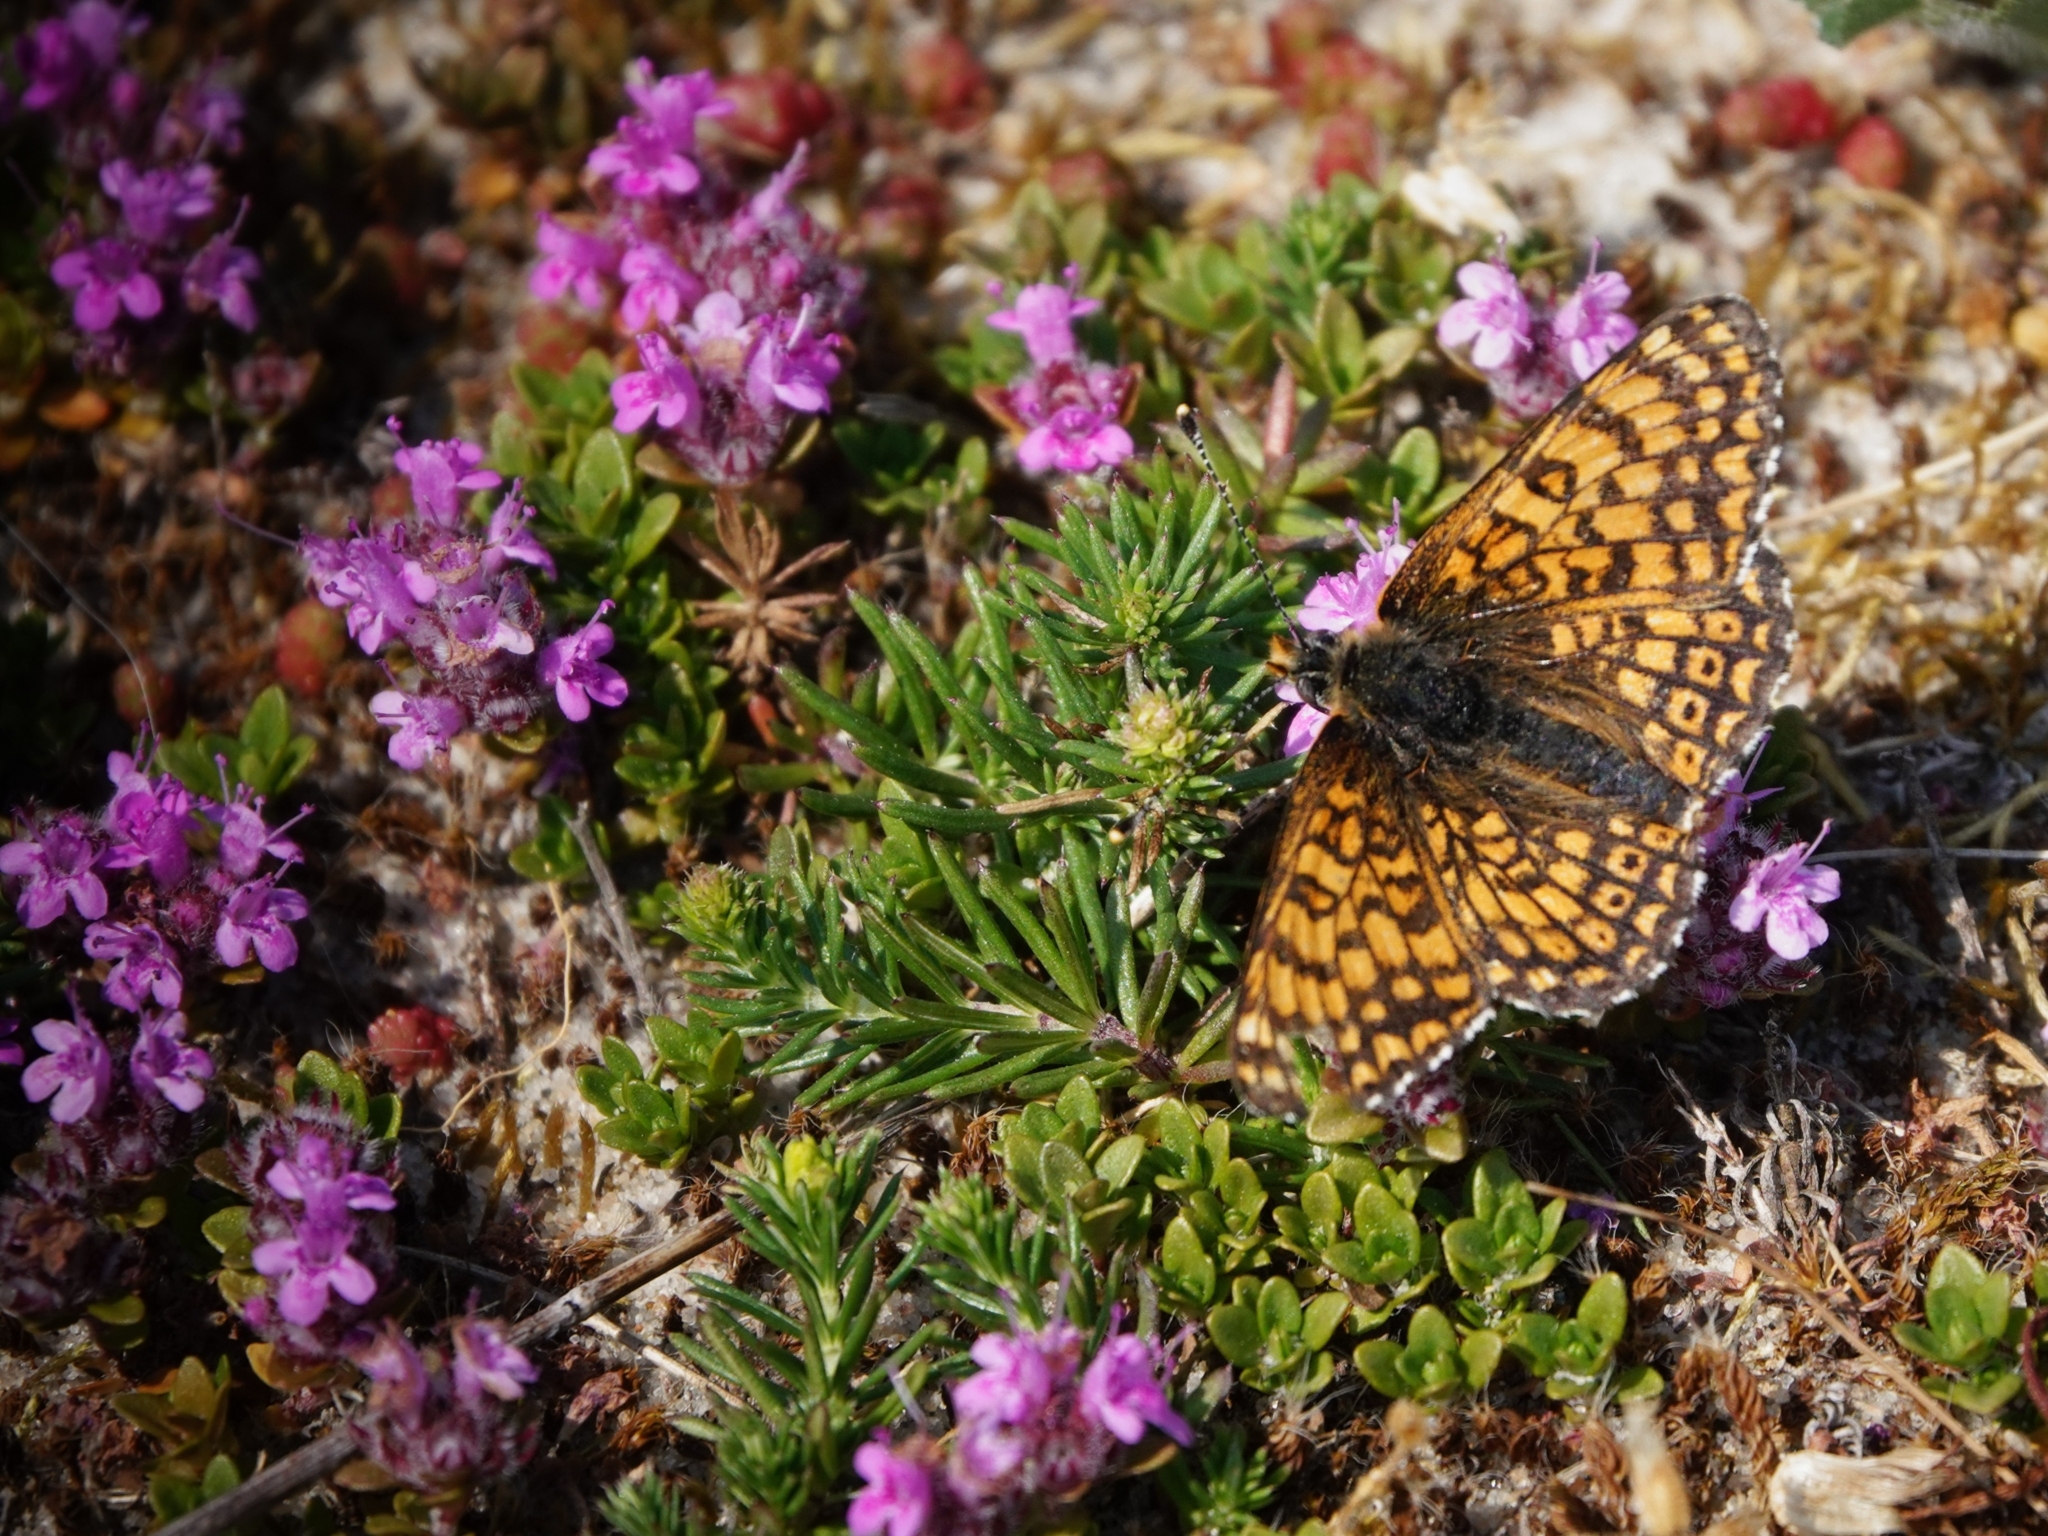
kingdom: Animalia
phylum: Arthropoda
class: Insecta
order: Lepidoptera
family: Nymphalidae
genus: Melitaea
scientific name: Melitaea cinxia
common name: Glanville fritillary
